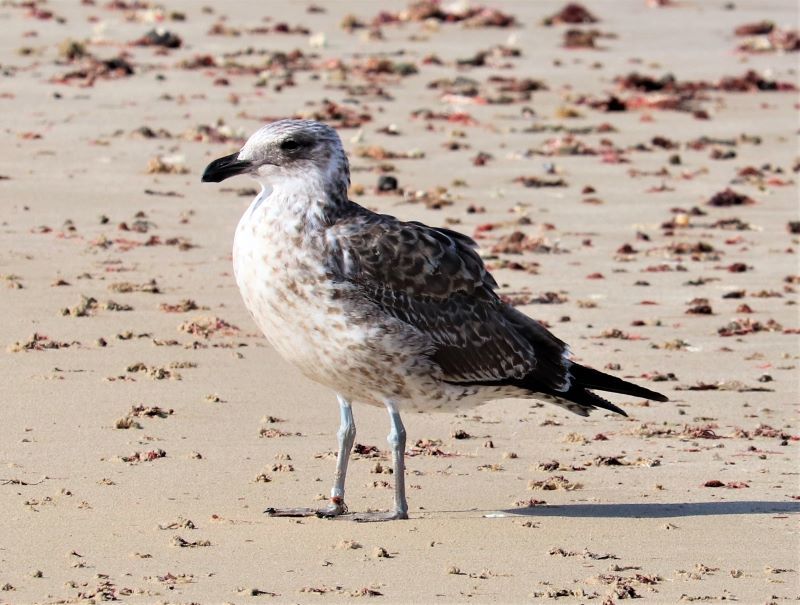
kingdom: Animalia
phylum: Chordata
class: Aves
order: Charadriiformes
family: Laridae
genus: Larus
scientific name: Larus dominicanus
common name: Kelp gull
